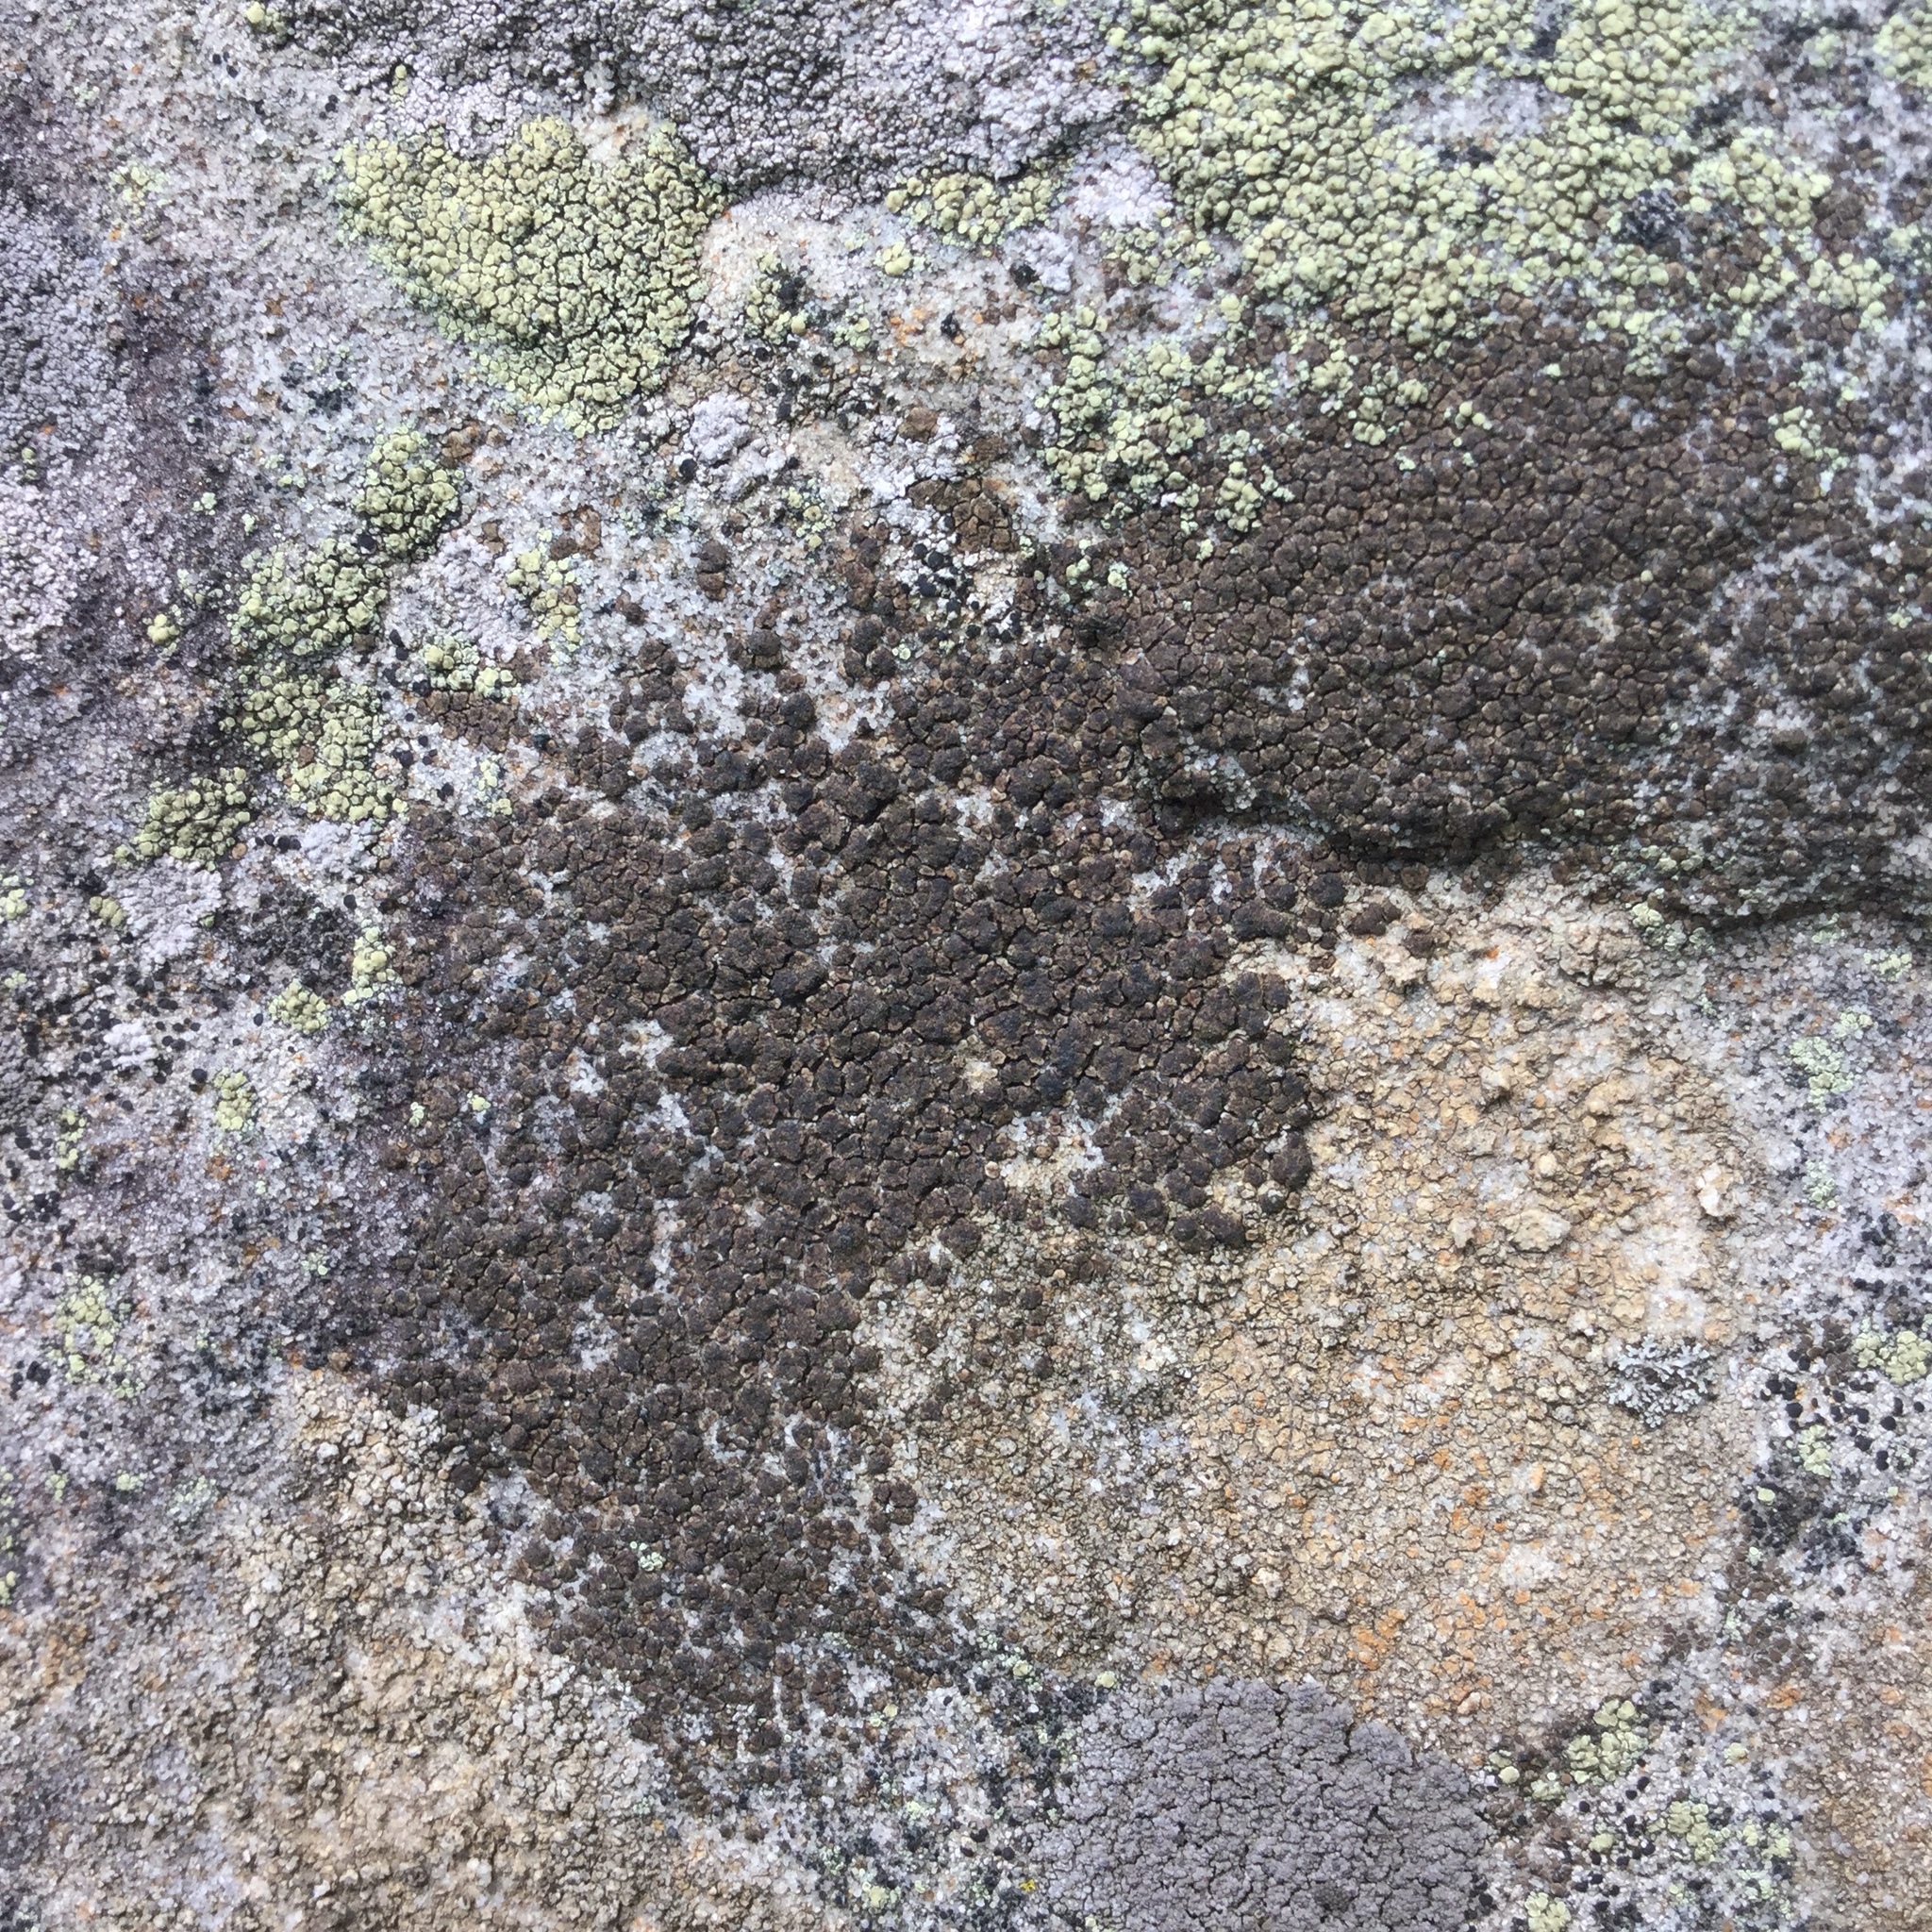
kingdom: Fungi
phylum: Ascomycota
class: Lecanoromycetes
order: Acarosporales
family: Acarosporaceae
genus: Acarospora
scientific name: Acarospora fuscata
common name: Brown cobblestone lichen
